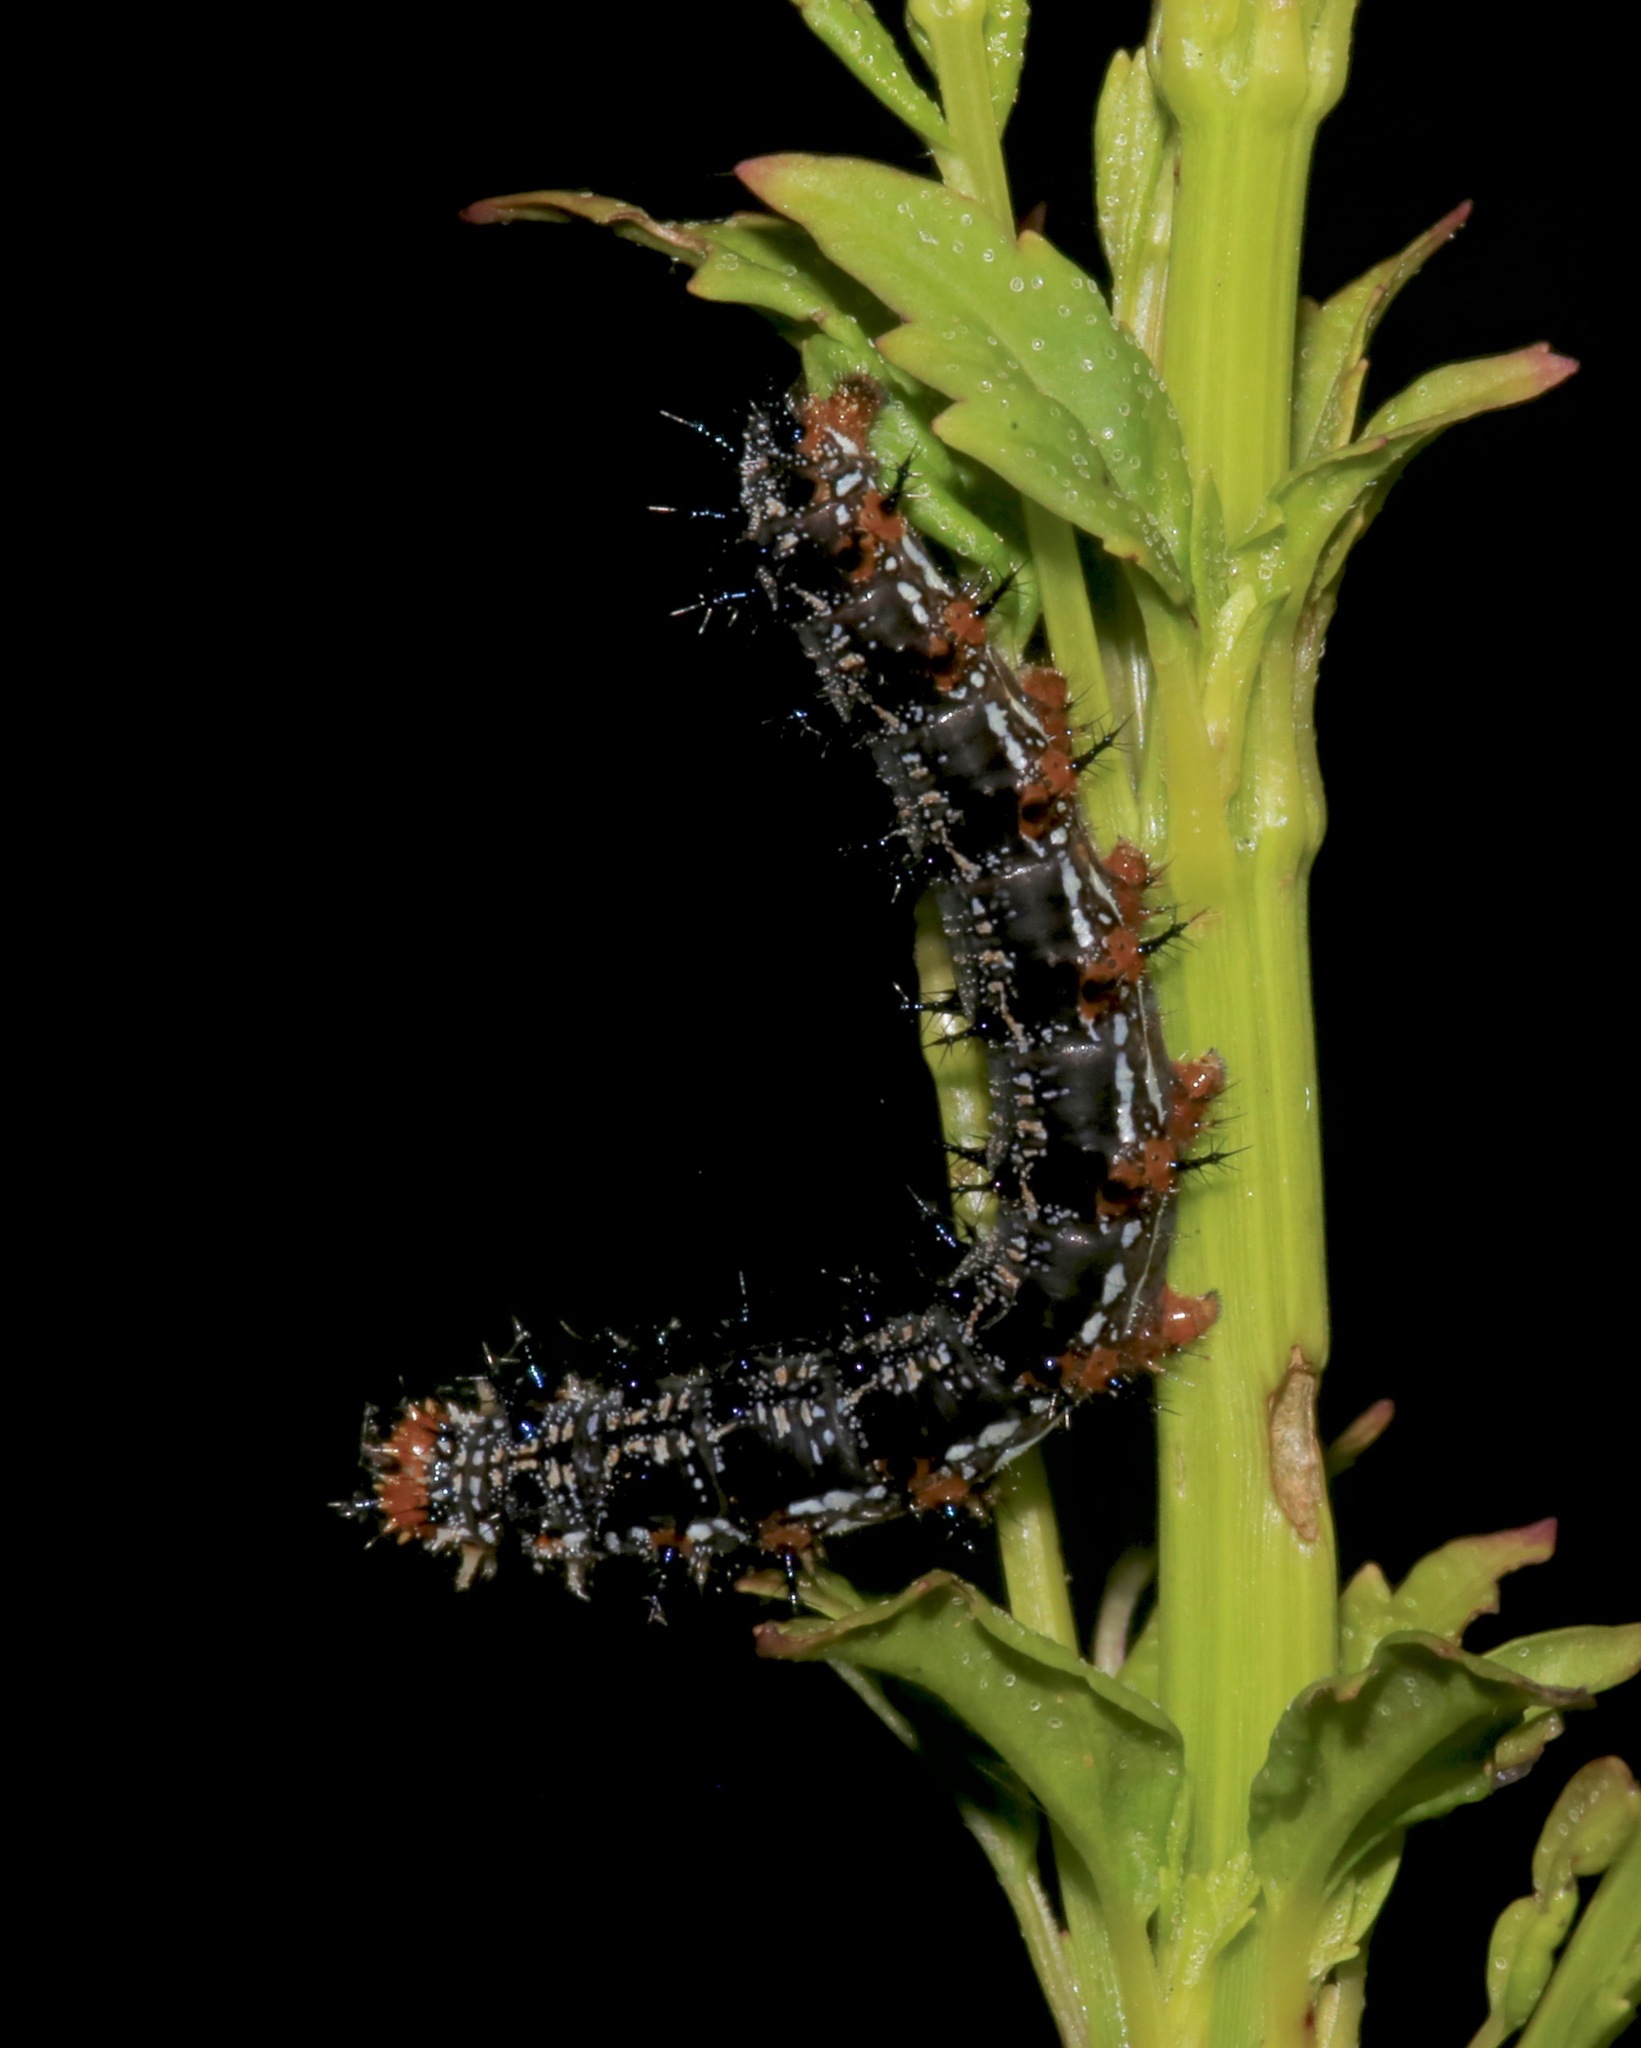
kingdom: Animalia
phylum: Arthropoda
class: Insecta
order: Lepidoptera
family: Nymphalidae
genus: Junonia
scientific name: Junonia coenia
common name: Common buckeye
